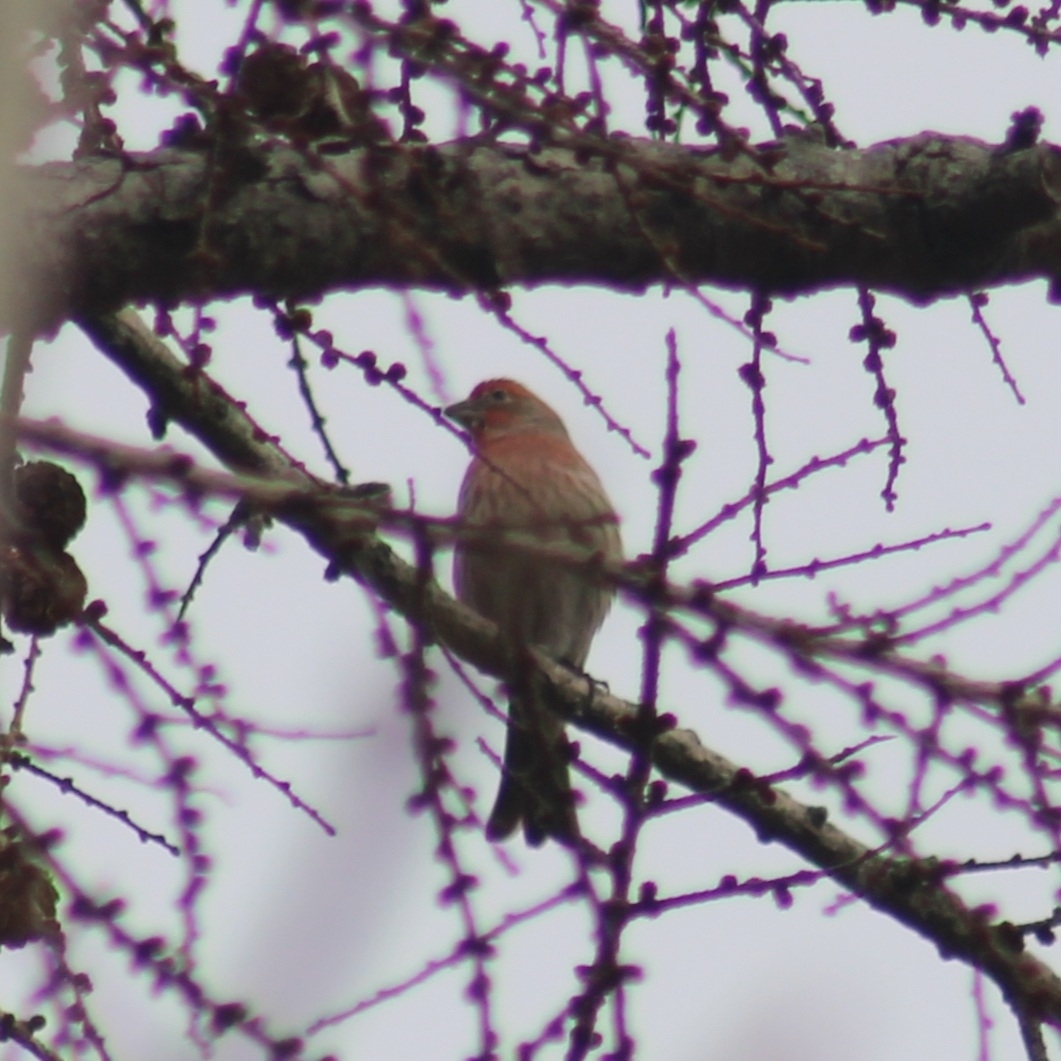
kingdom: Animalia
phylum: Chordata
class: Aves
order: Passeriformes
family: Fringillidae
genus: Haemorhous
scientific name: Haemorhous mexicanus
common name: House finch
